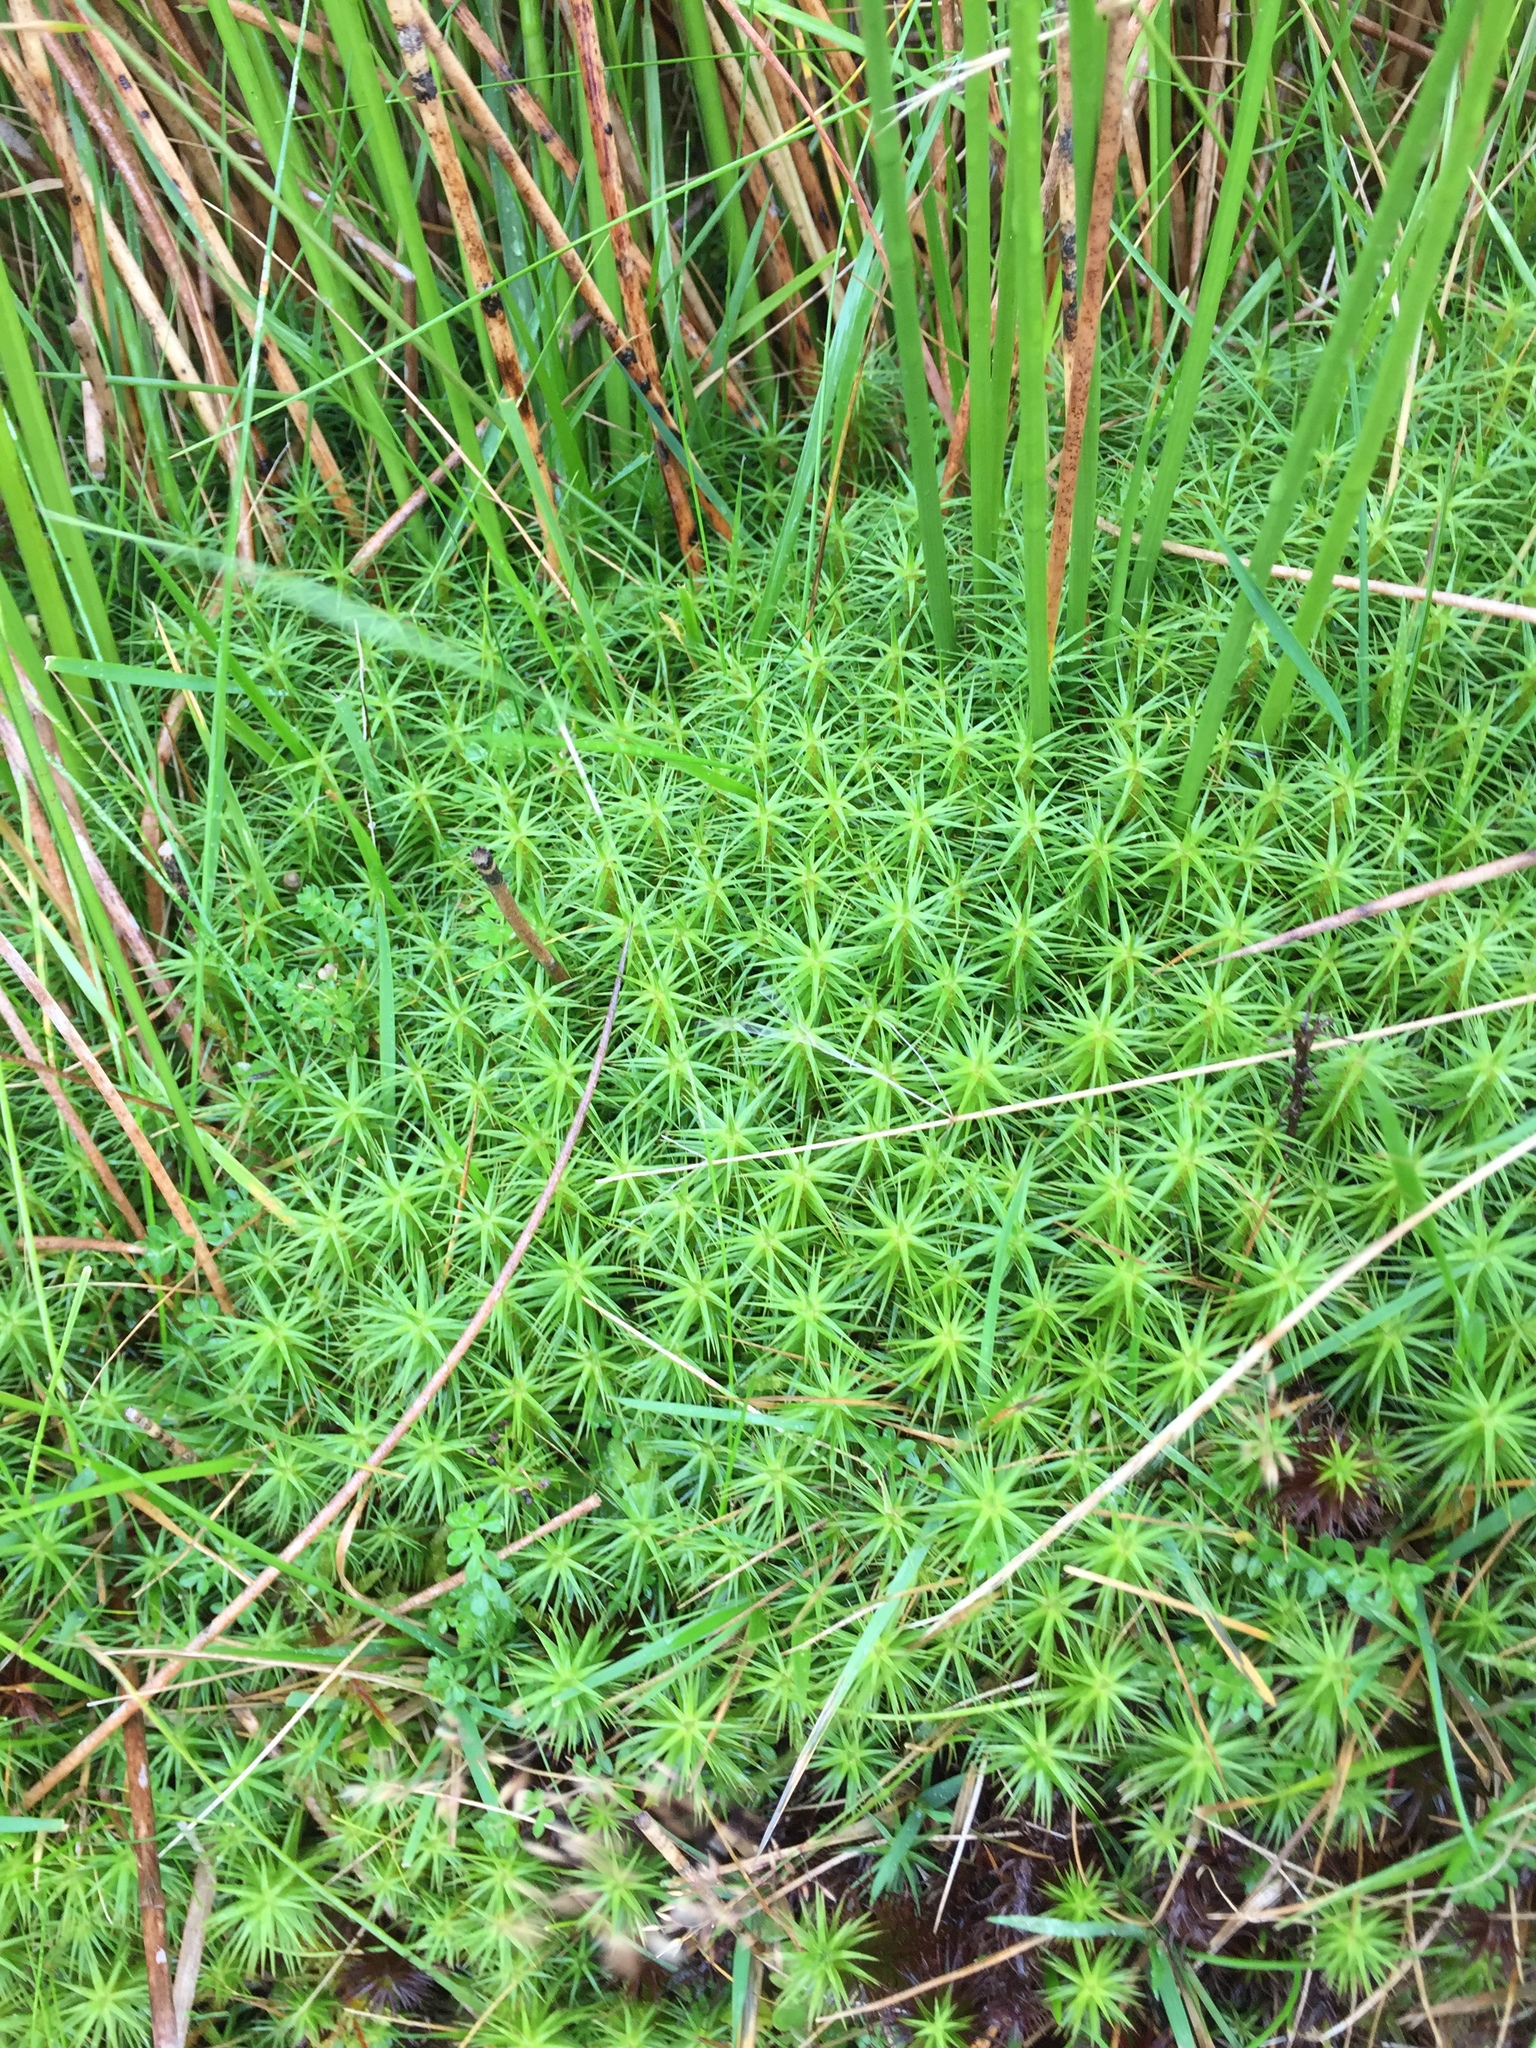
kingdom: Plantae
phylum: Bryophyta
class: Polytrichopsida
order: Polytrichales
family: Polytrichaceae
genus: Polytrichum
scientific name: Polytrichum commune
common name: Common haircap
